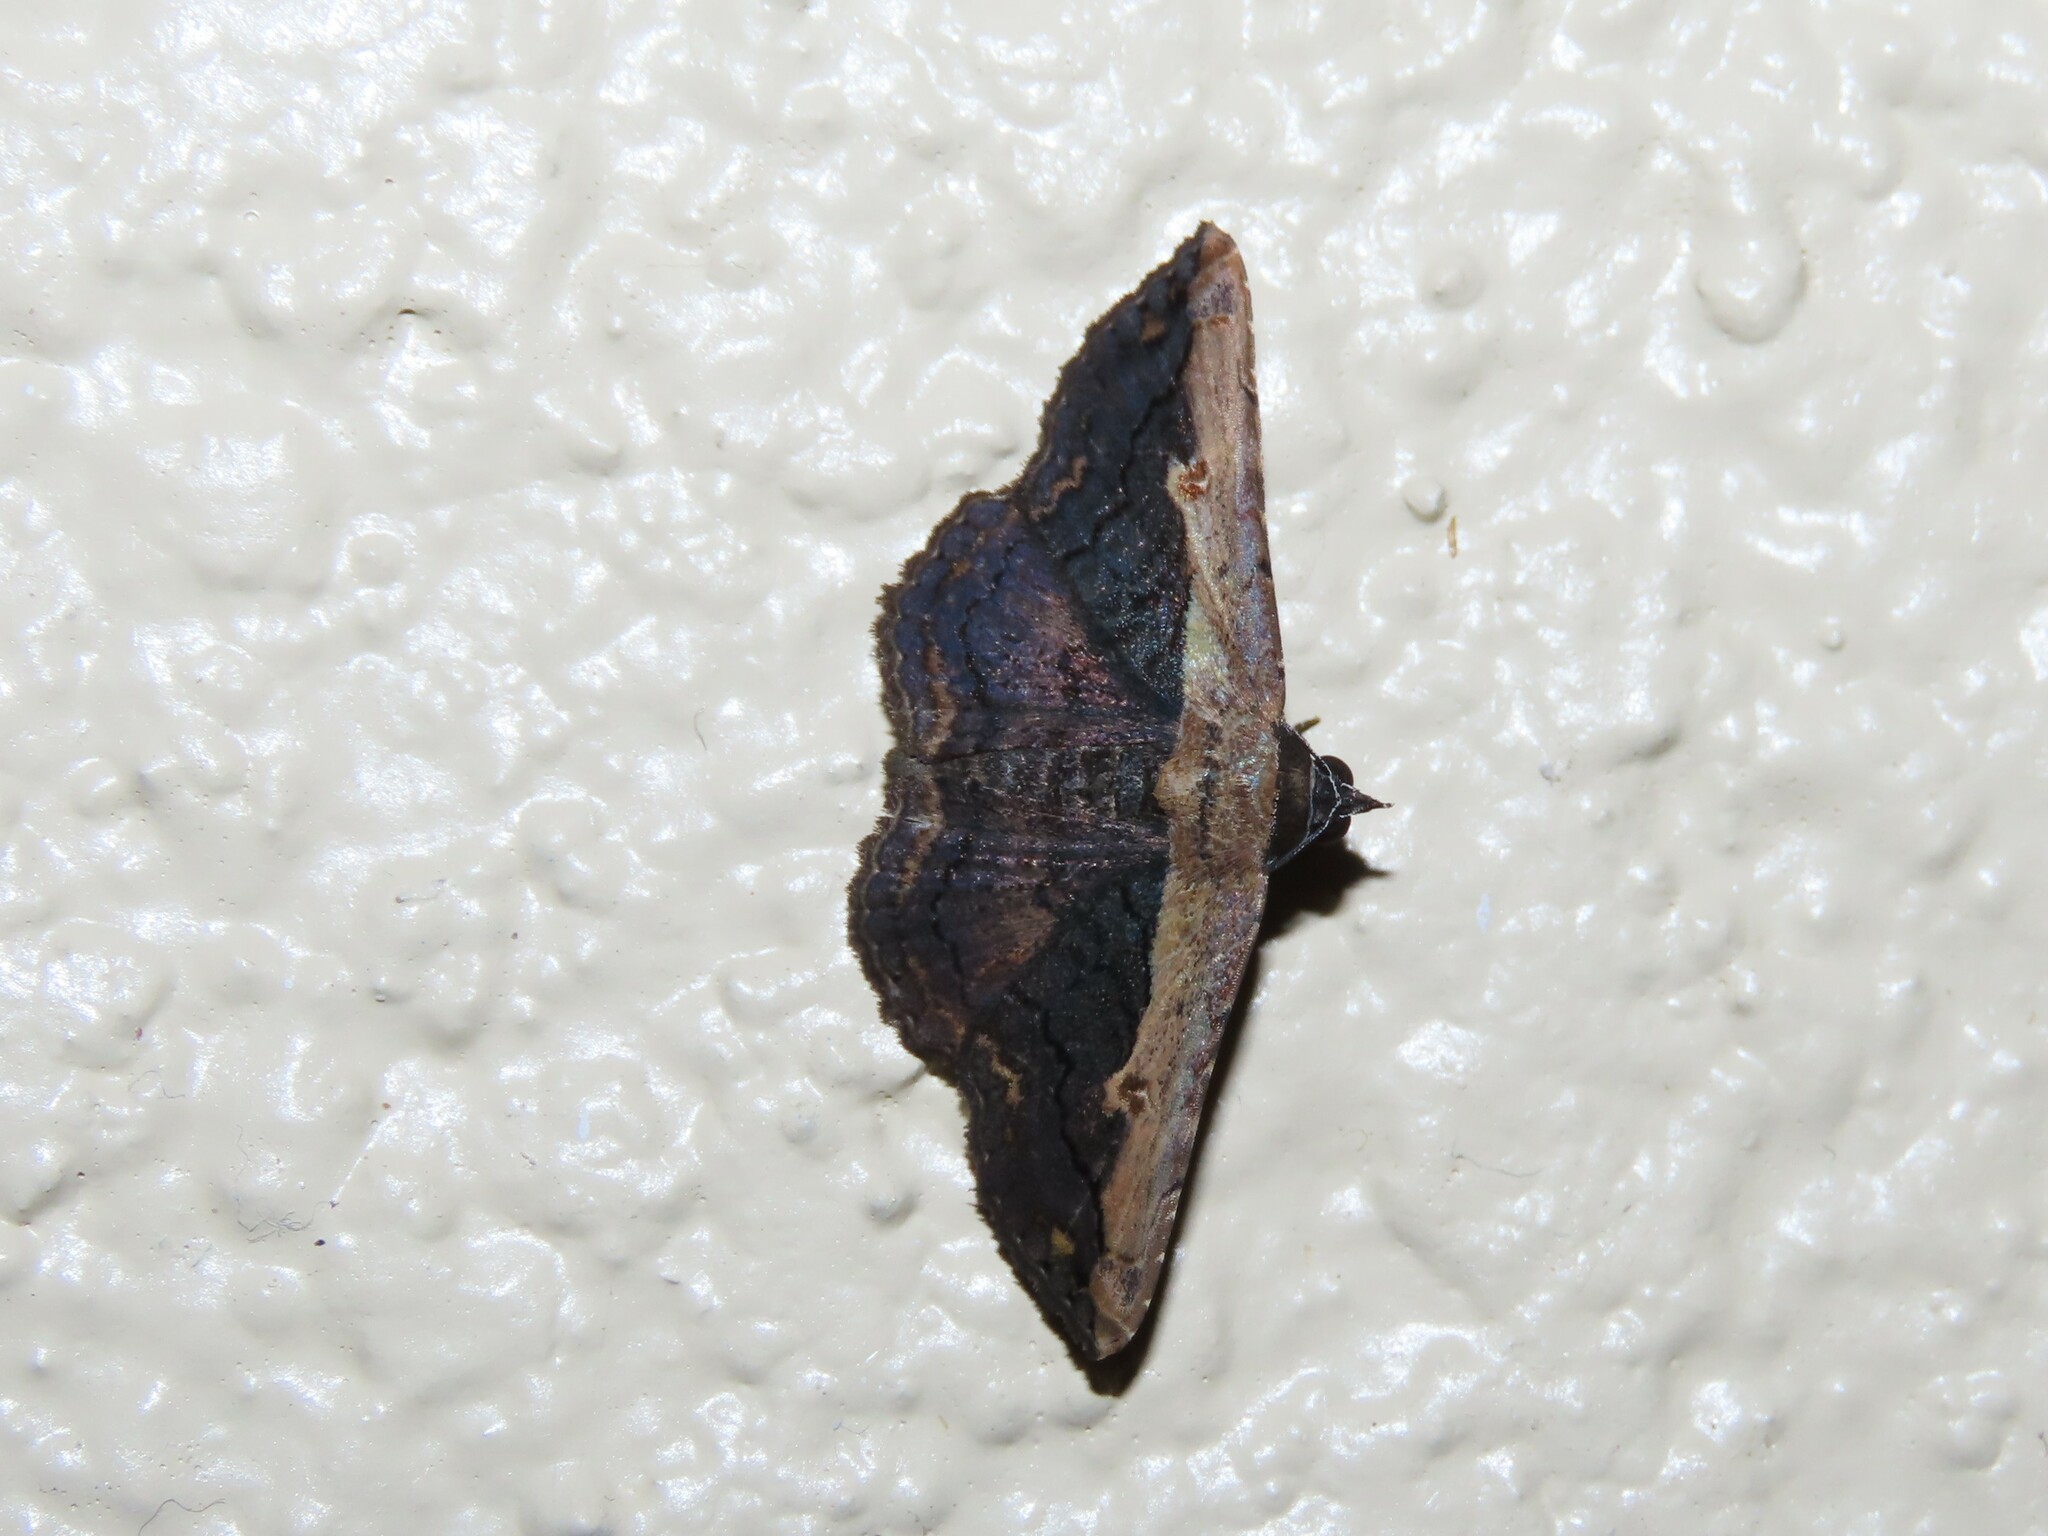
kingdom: Animalia
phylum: Arthropoda
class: Insecta
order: Lepidoptera
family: Erebidae
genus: Selenisa
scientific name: Selenisa sueroides
